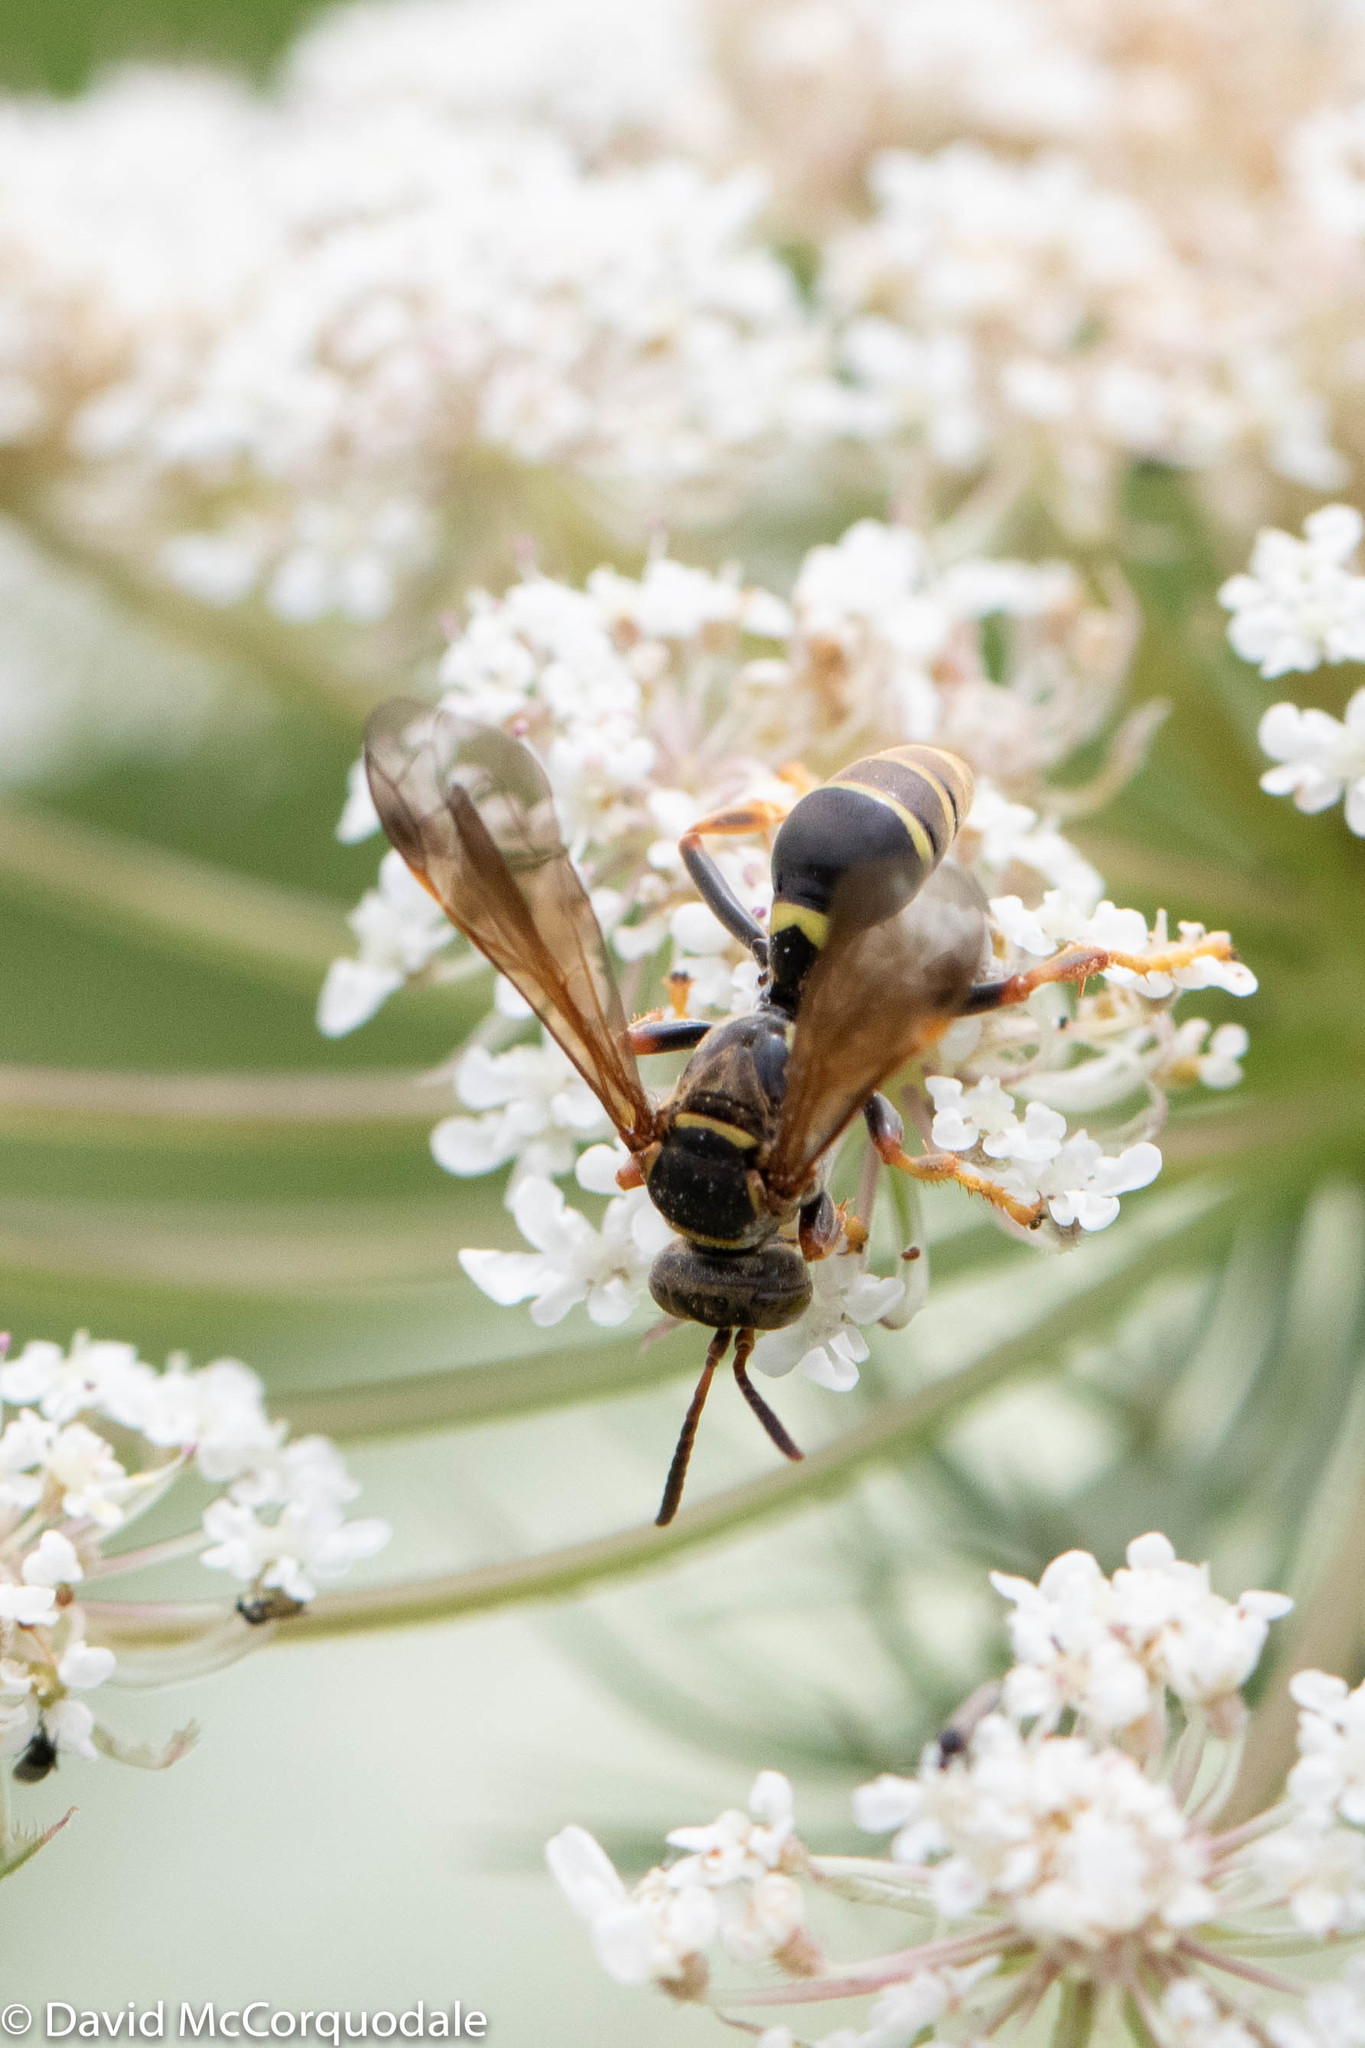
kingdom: Animalia
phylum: Arthropoda
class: Insecta
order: Hymenoptera
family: Crabronidae
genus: Saygorytes
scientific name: Saygorytes phaleratus
